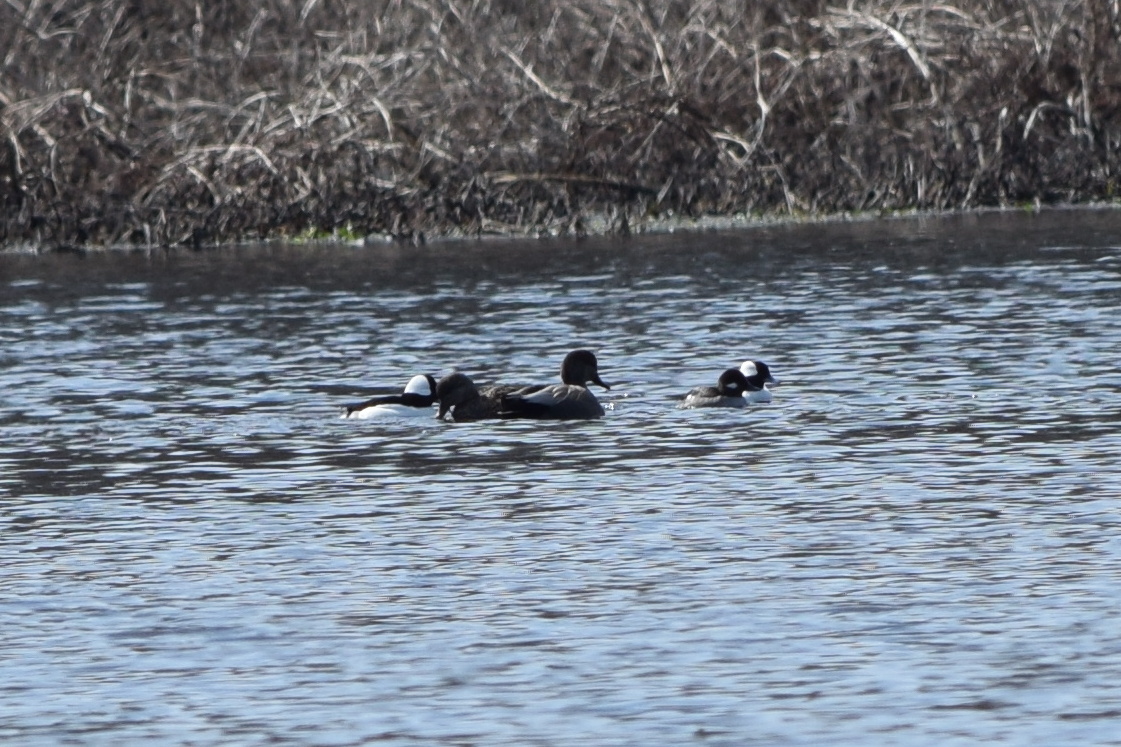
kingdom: Animalia
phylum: Chordata
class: Aves
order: Anseriformes
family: Anatidae
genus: Mareca
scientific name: Mareca strepera
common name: Gadwall
